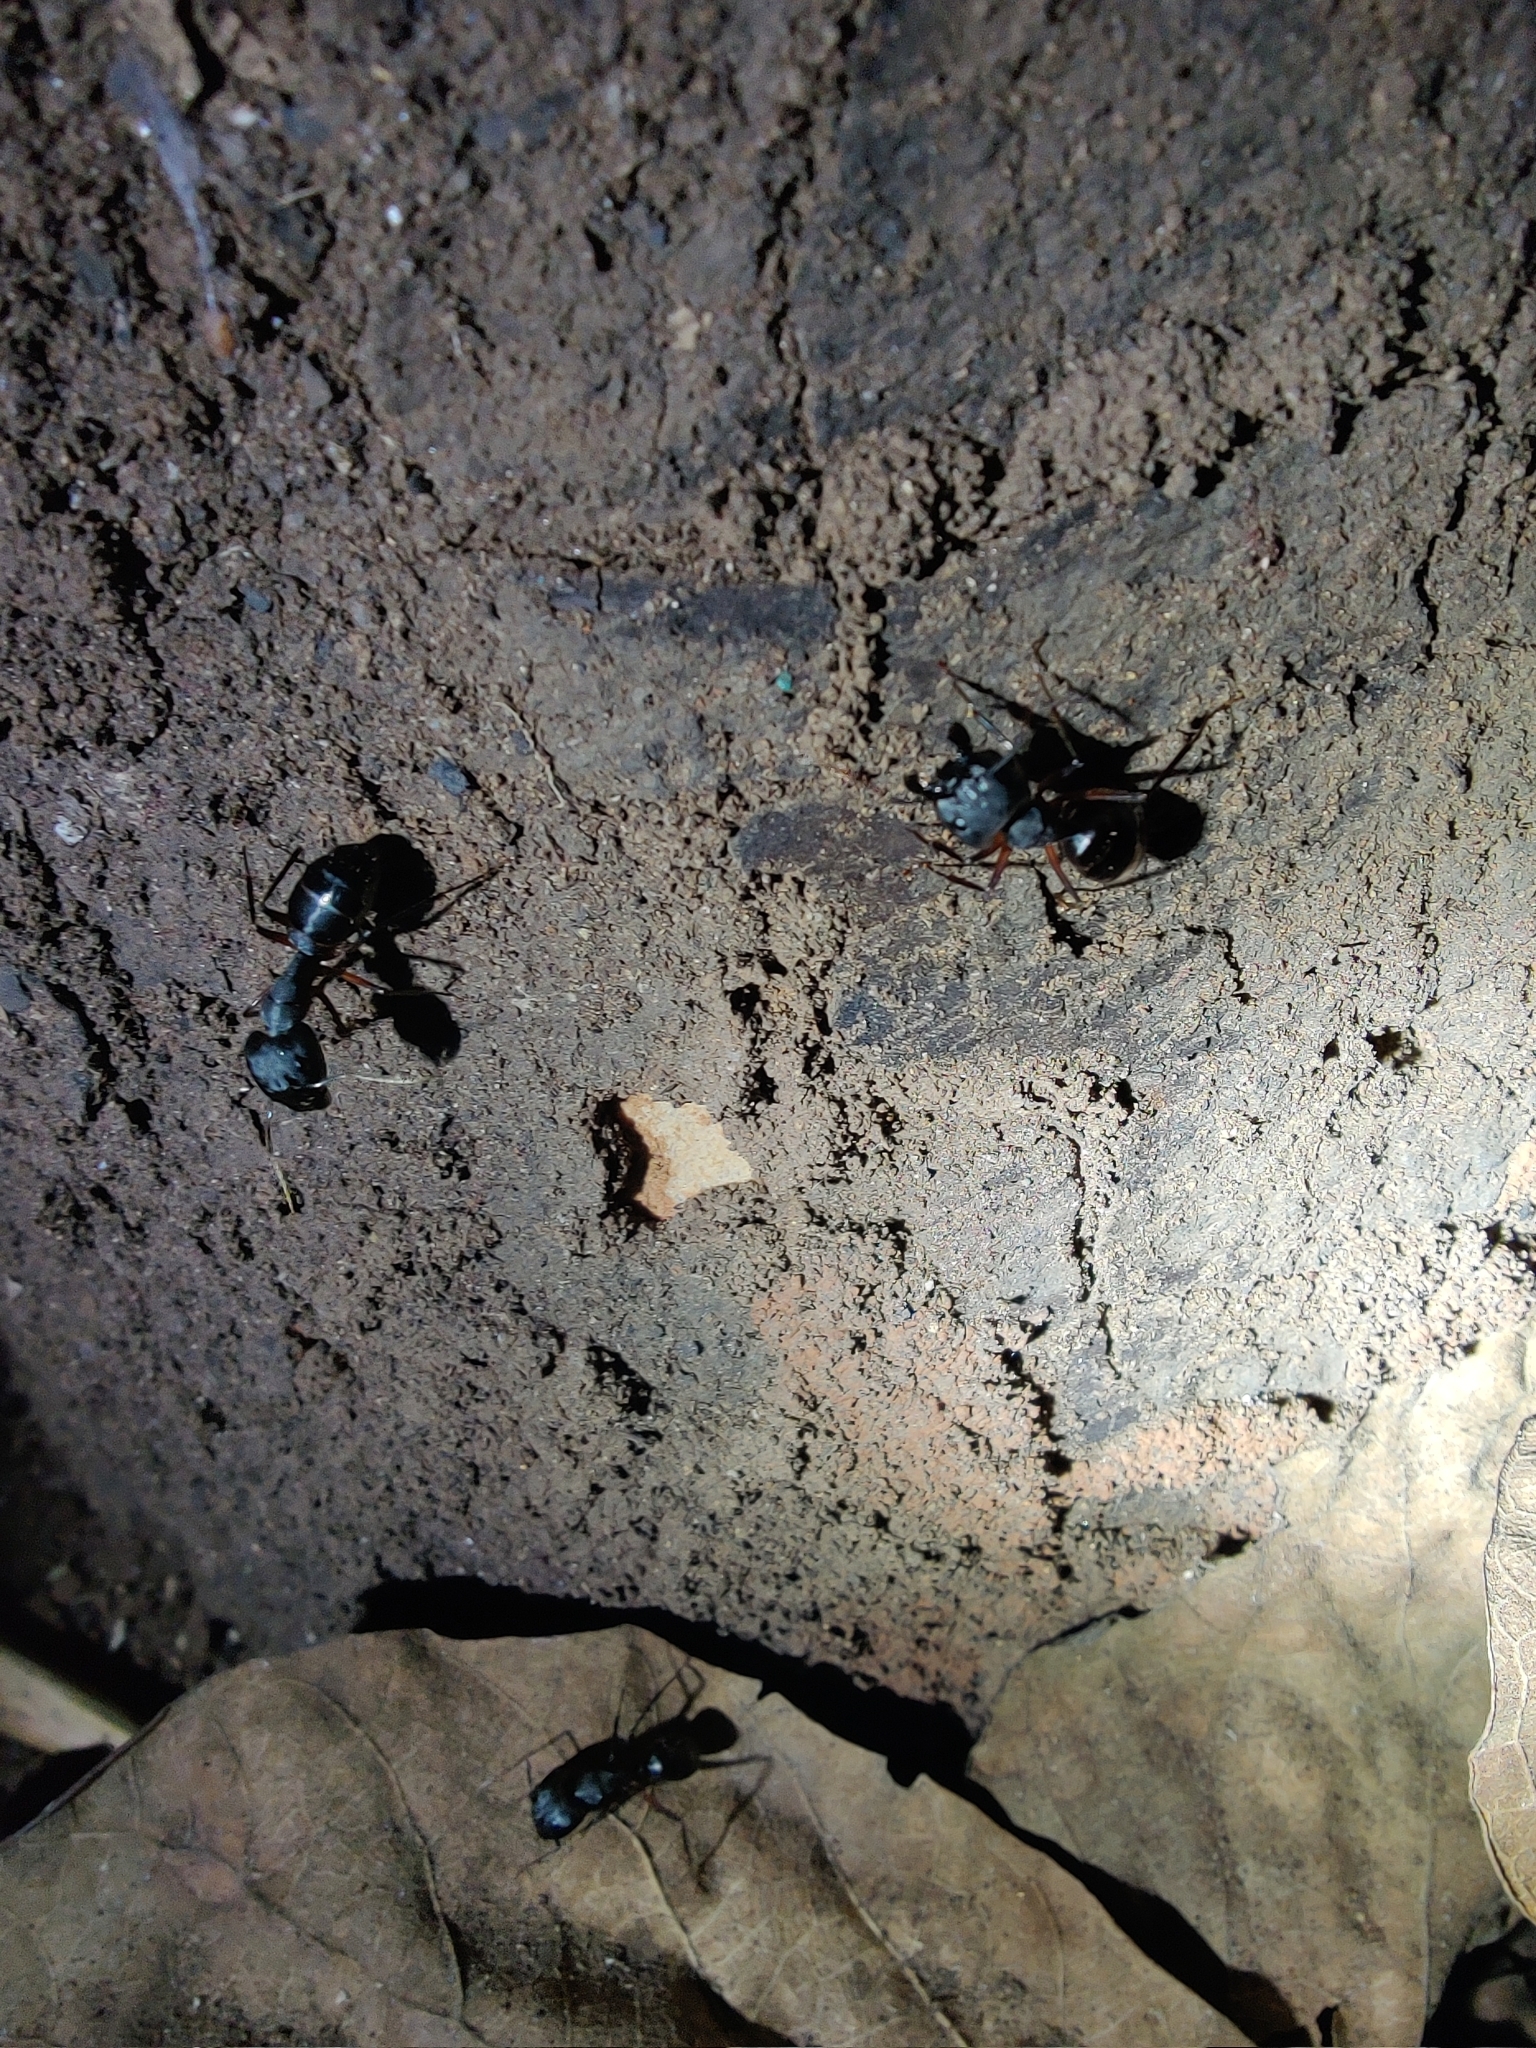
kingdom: Animalia
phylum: Arthropoda
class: Insecta
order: Hymenoptera
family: Formicidae
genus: Camponotus
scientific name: Camponotus compressus
